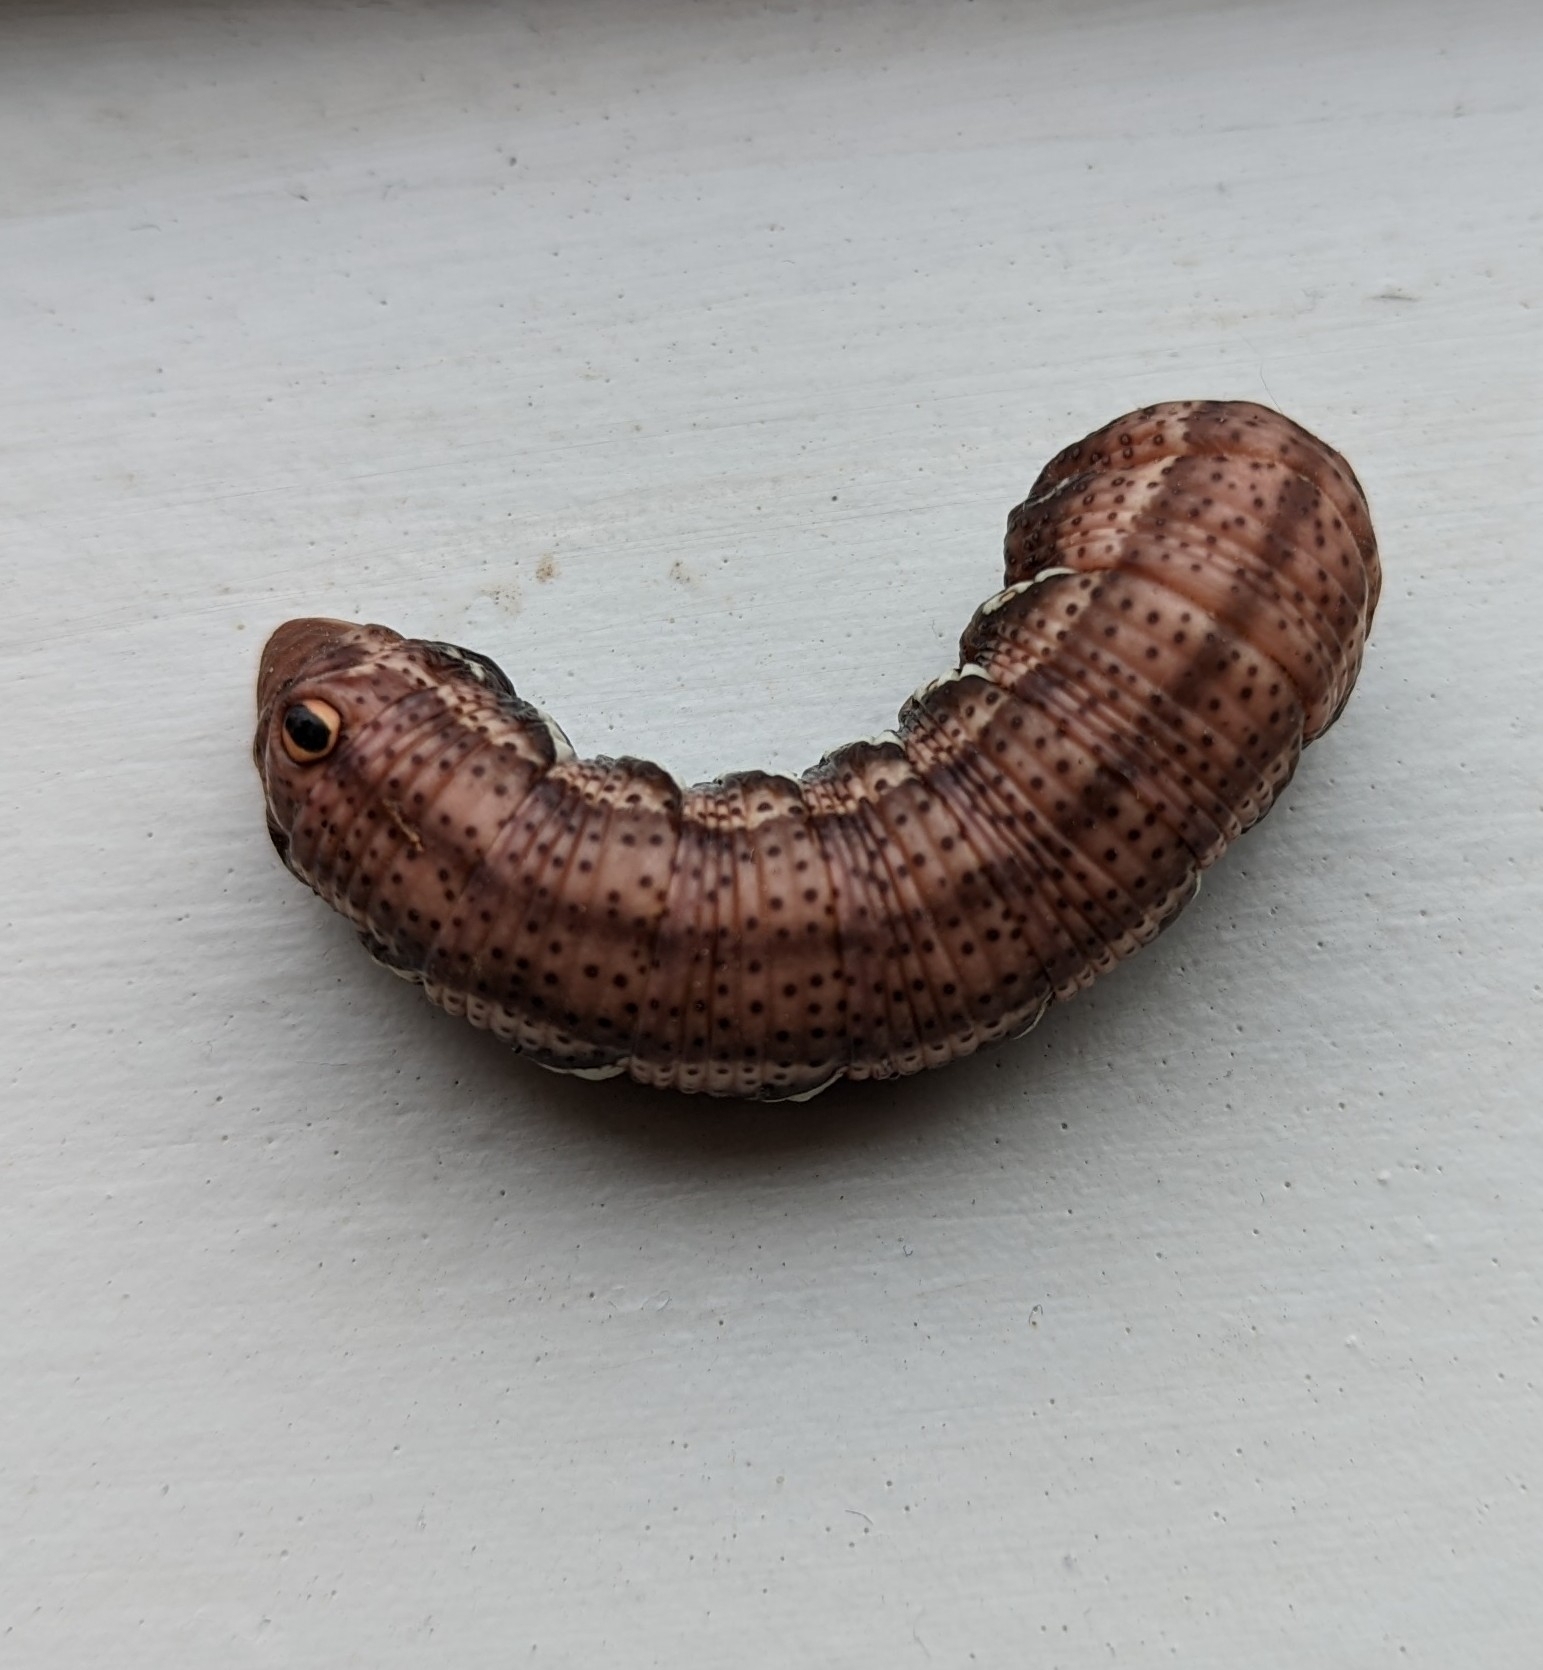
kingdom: Animalia
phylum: Arthropoda
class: Insecta
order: Lepidoptera
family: Sphingidae
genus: Eumorpha
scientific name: Eumorpha achemon
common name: Achemon sphinx
